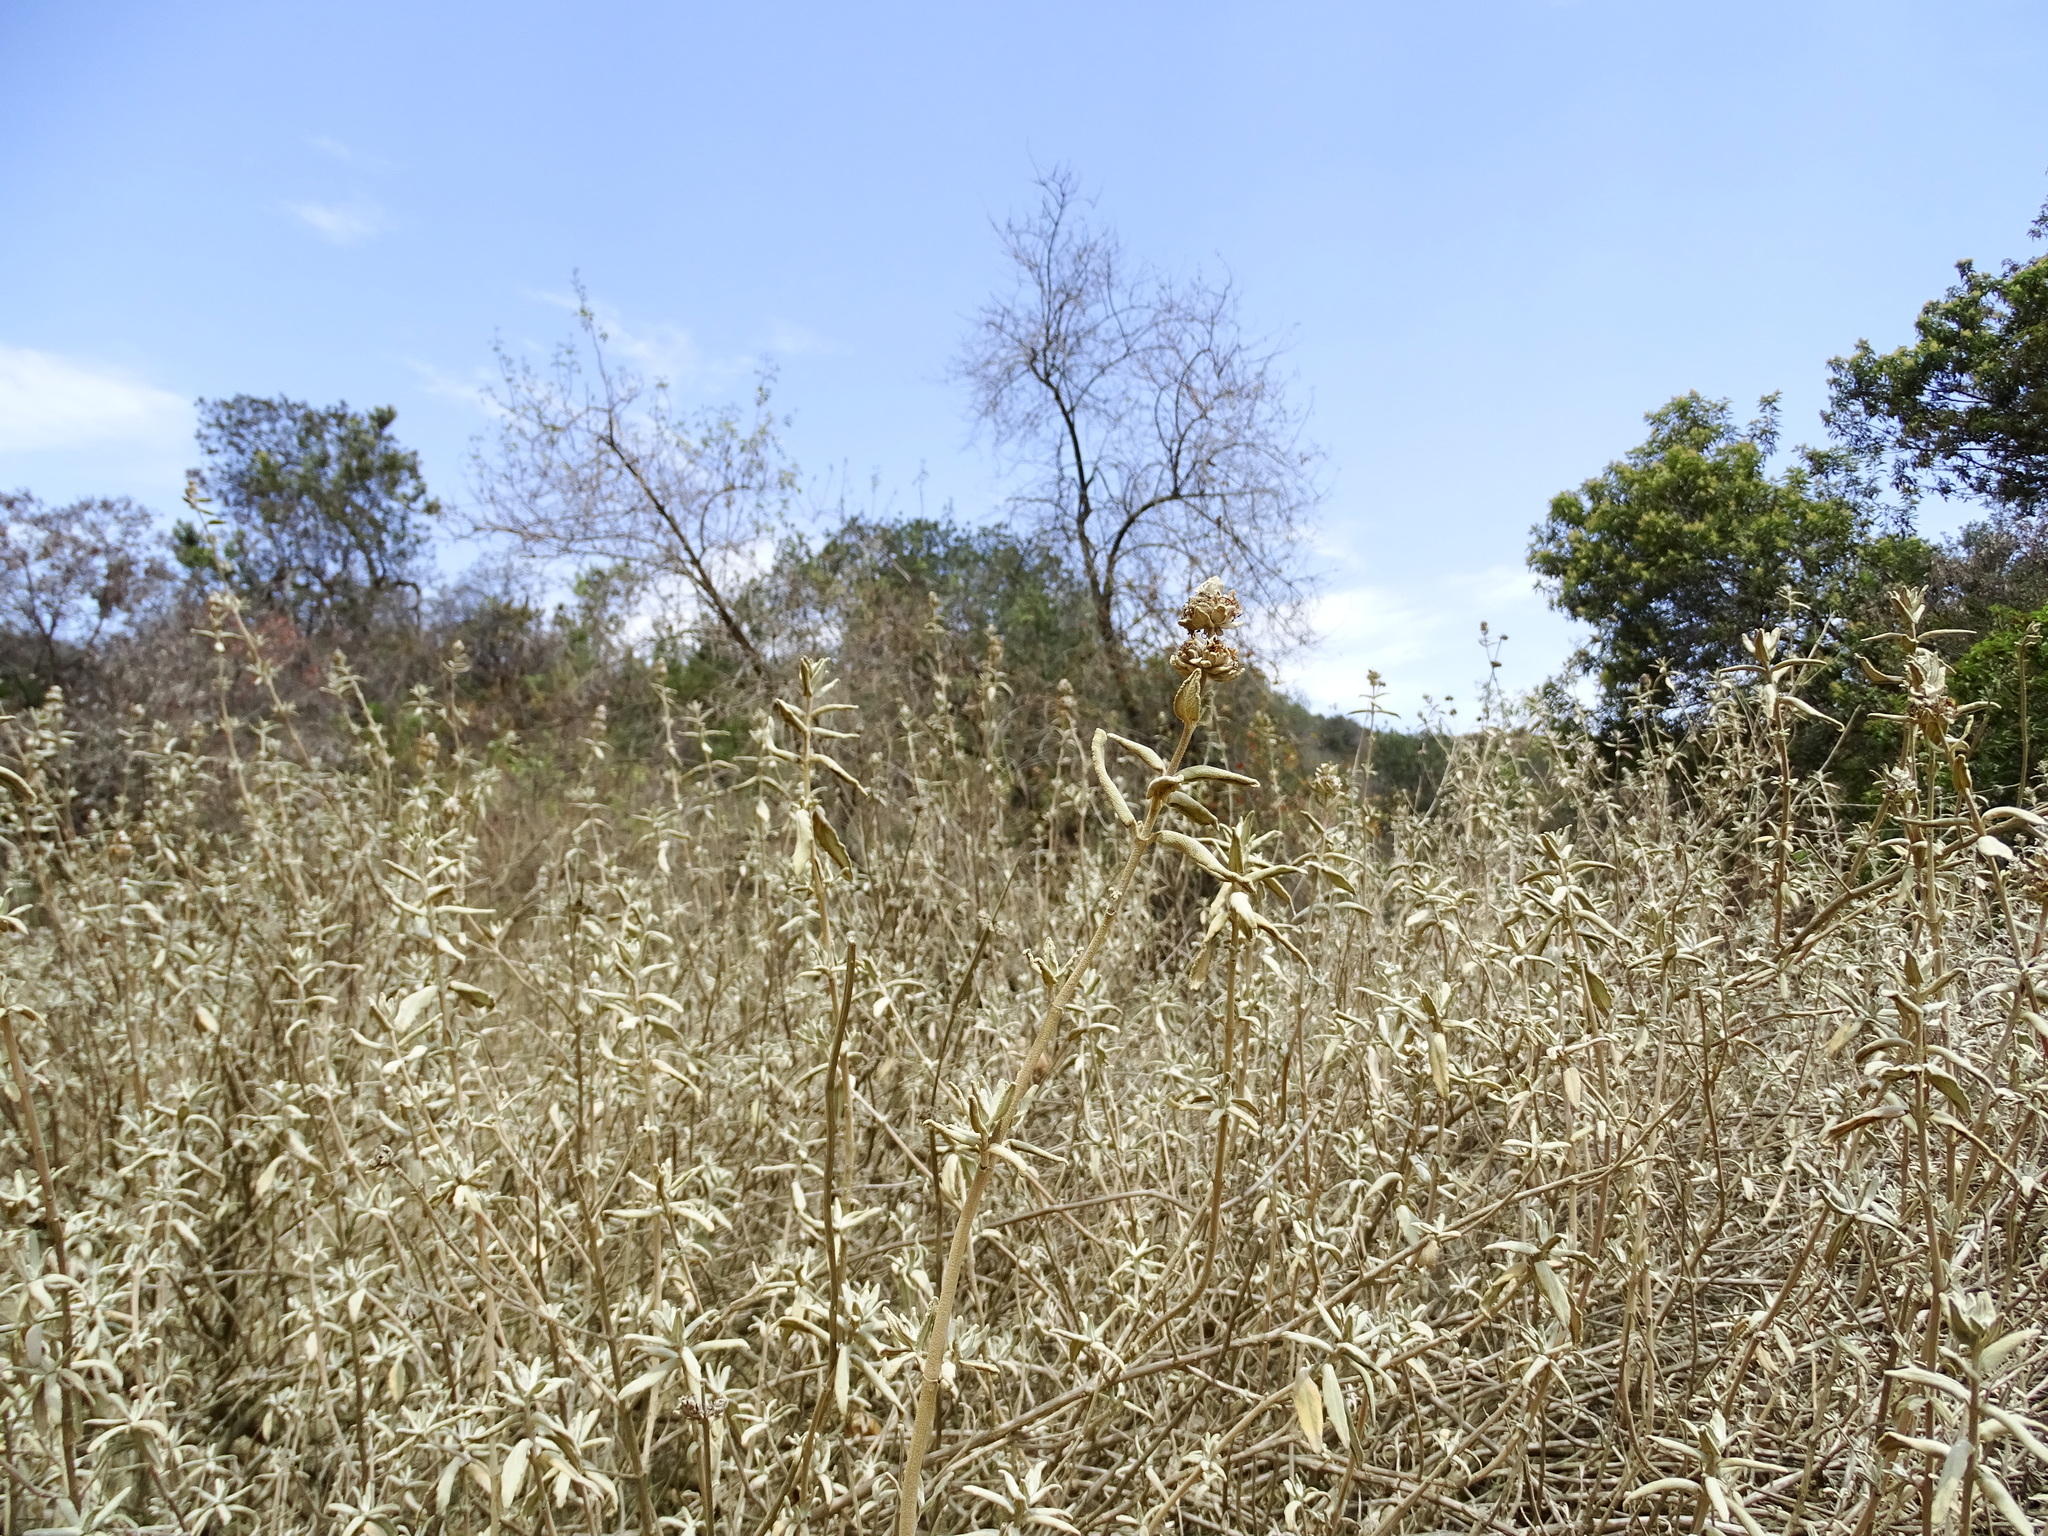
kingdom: Plantae
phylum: Tracheophyta
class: Magnoliopsida
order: Lamiales
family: Lamiaceae
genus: Salvia
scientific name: Salvia leucophylla
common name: Purple sage
